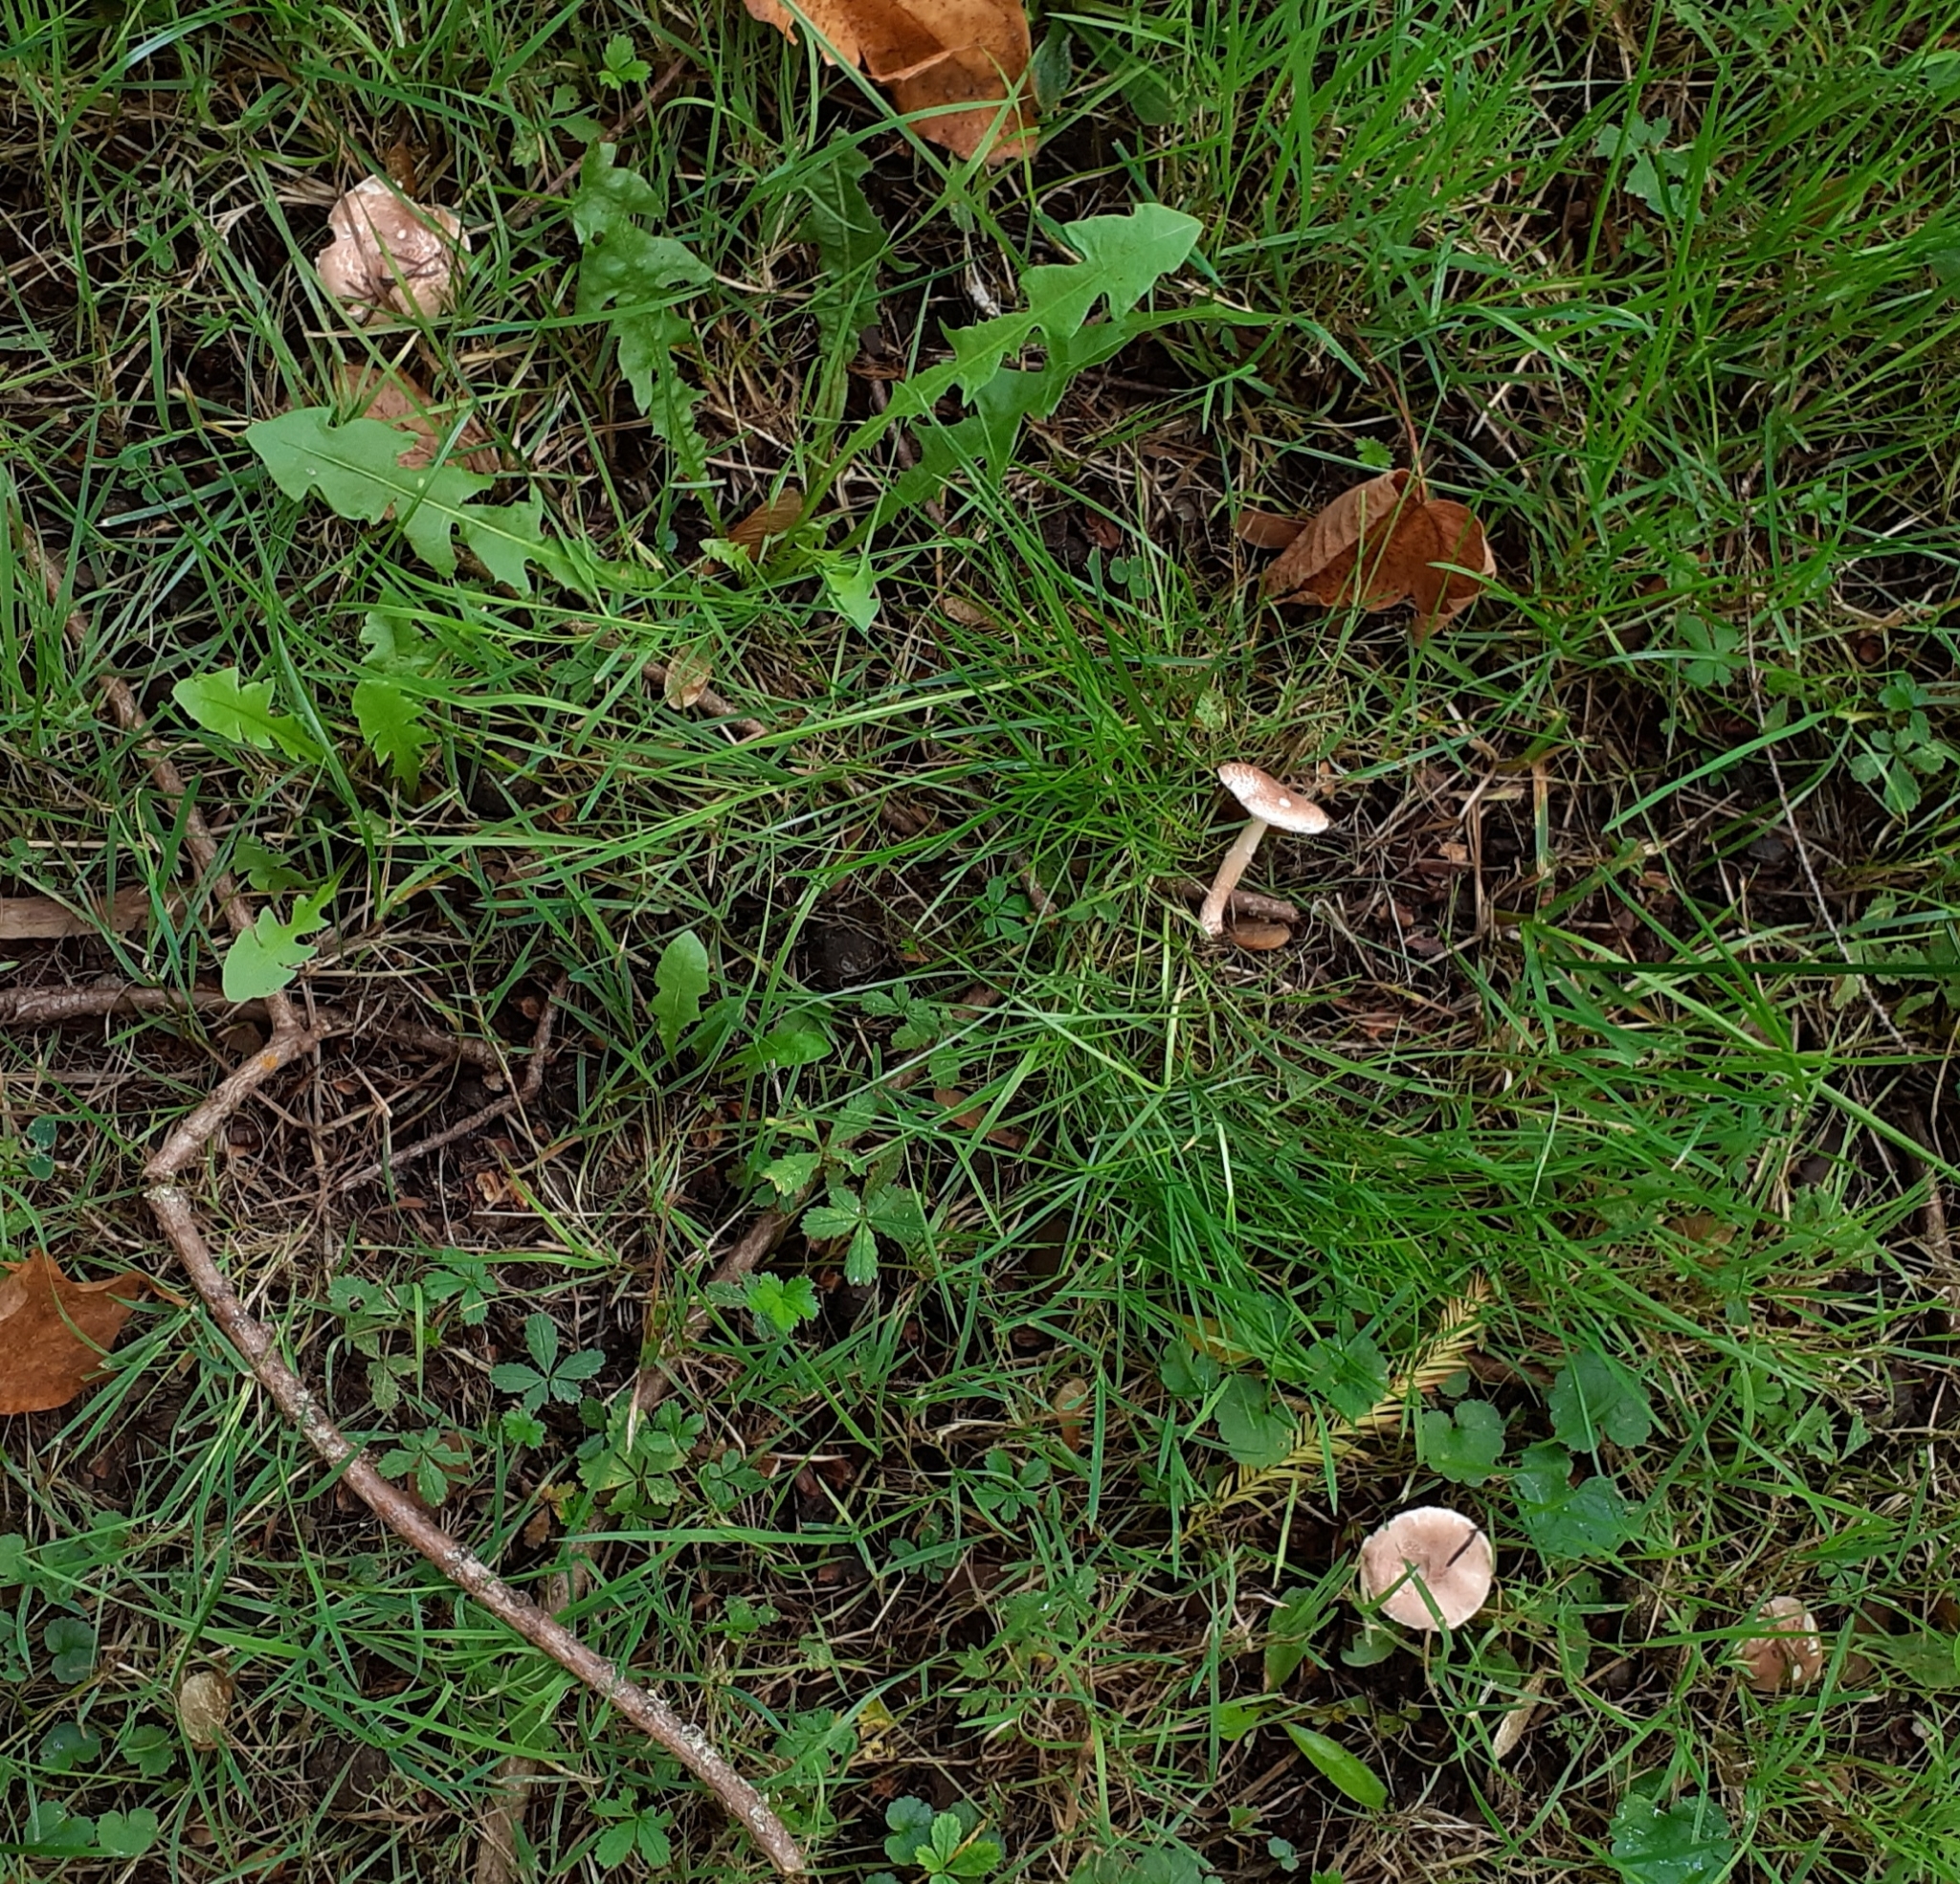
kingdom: Fungi
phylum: Basidiomycota
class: Agaricomycetes
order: Agaricales
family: Agaricaceae
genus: Lepiota
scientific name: Lepiota subincarnata
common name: Fatal dapperling
